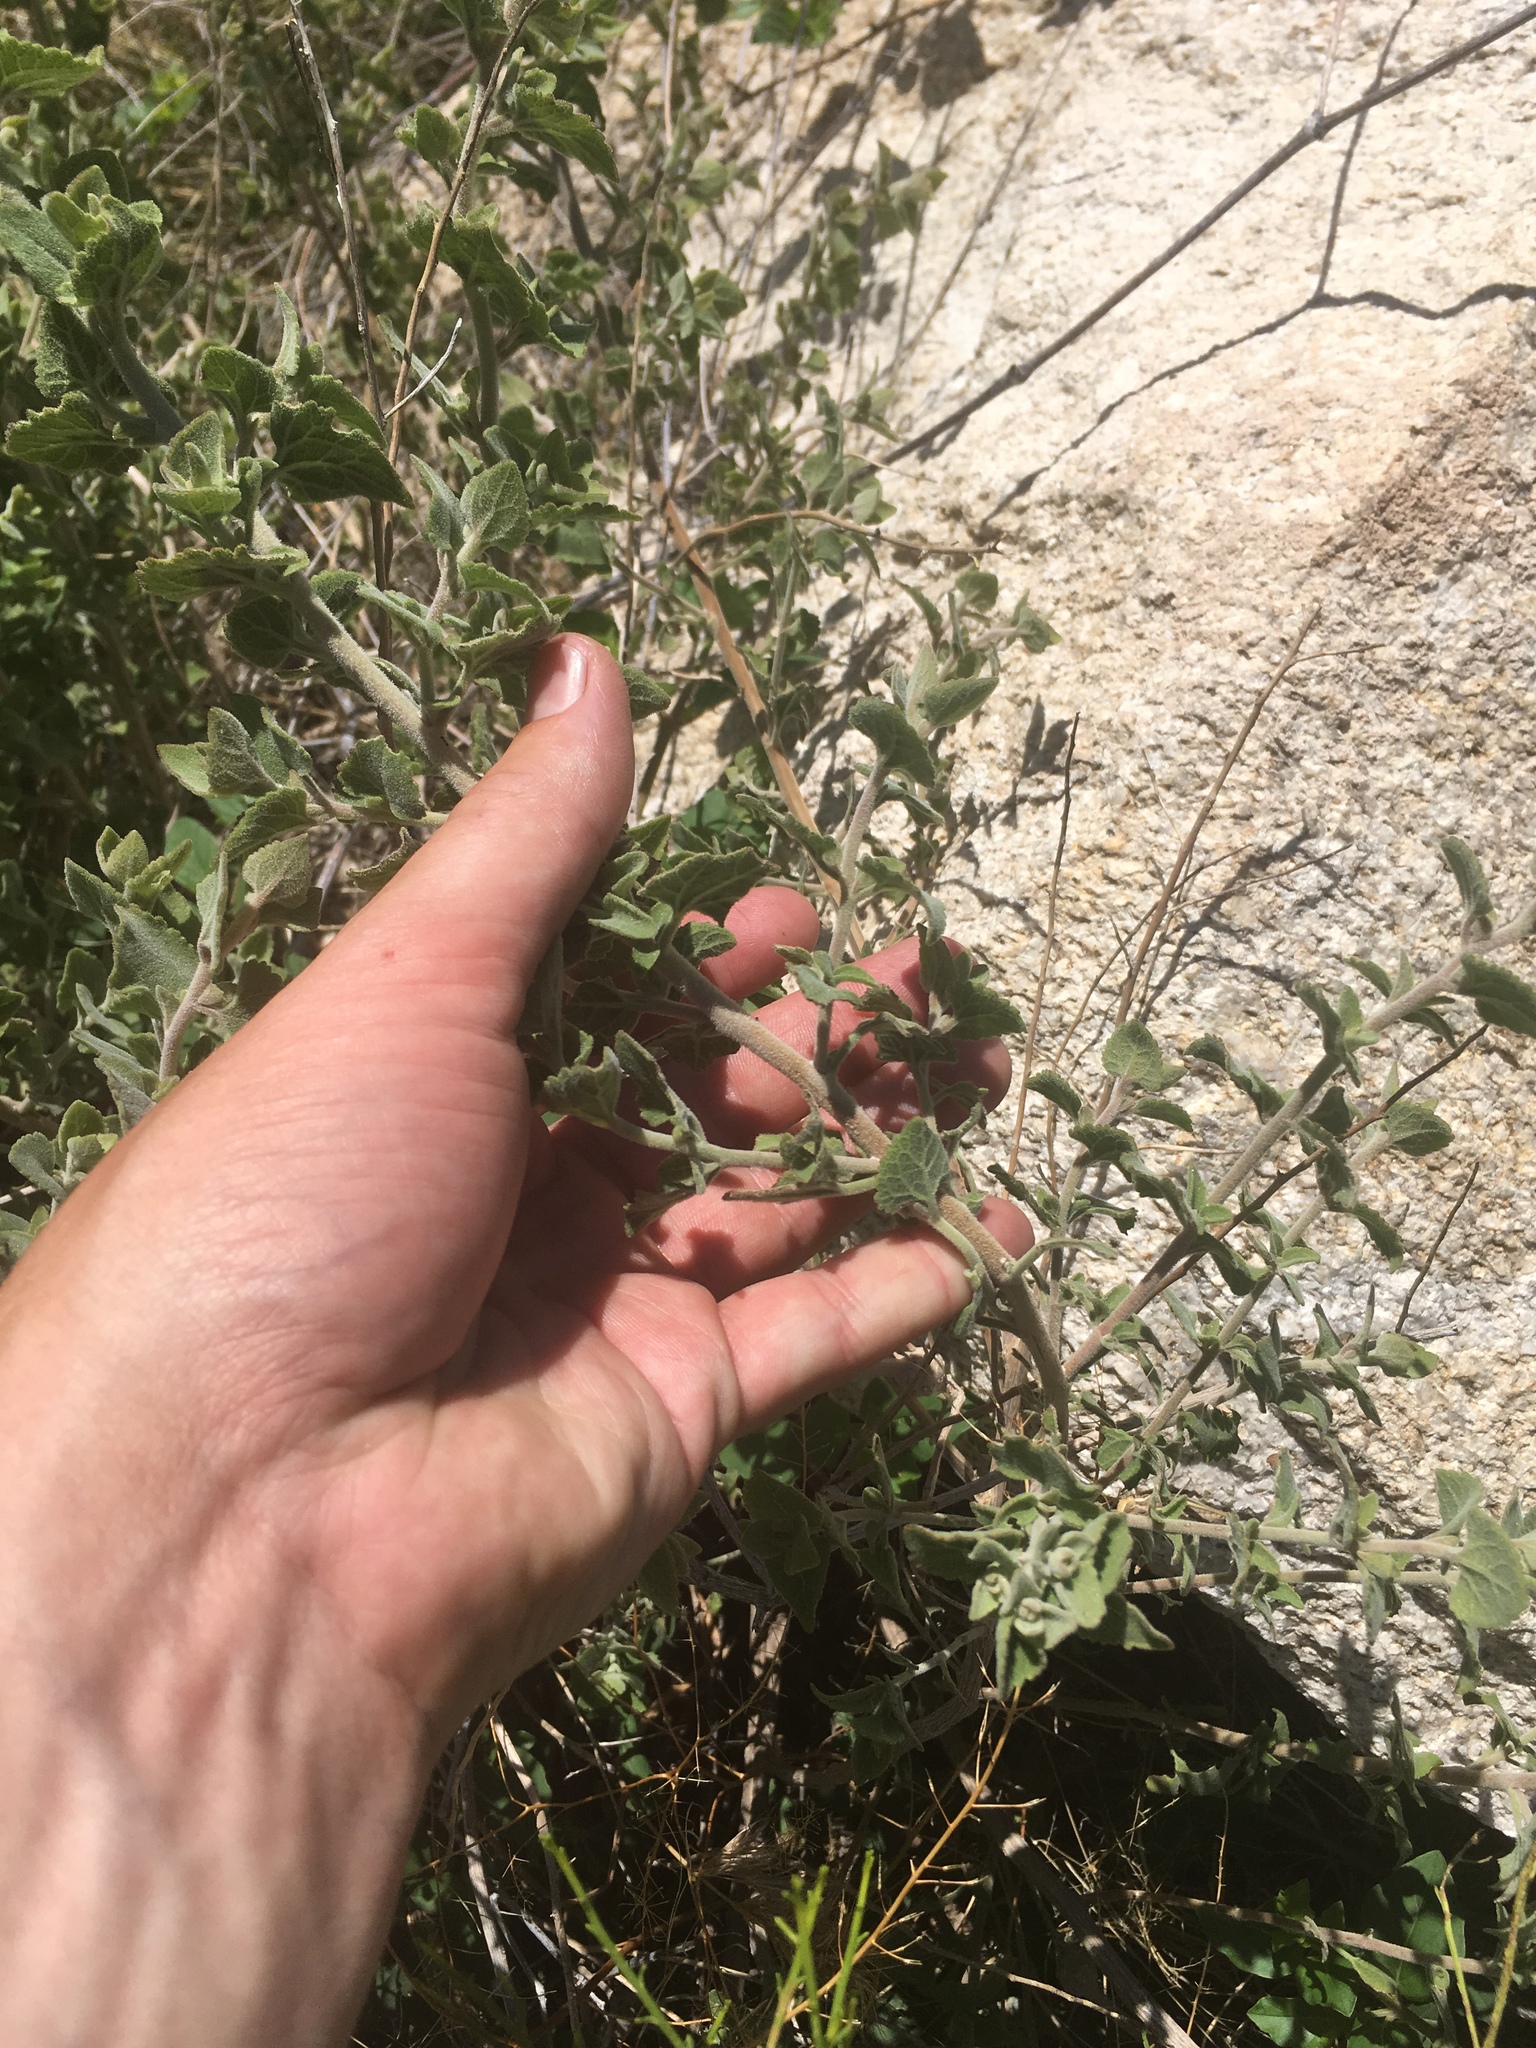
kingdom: Plantae
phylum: Tracheophyta
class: Magnoliopsida
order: Asterales
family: Asteraceae
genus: Brickellia
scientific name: Brickellia californica
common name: California brickellbush
